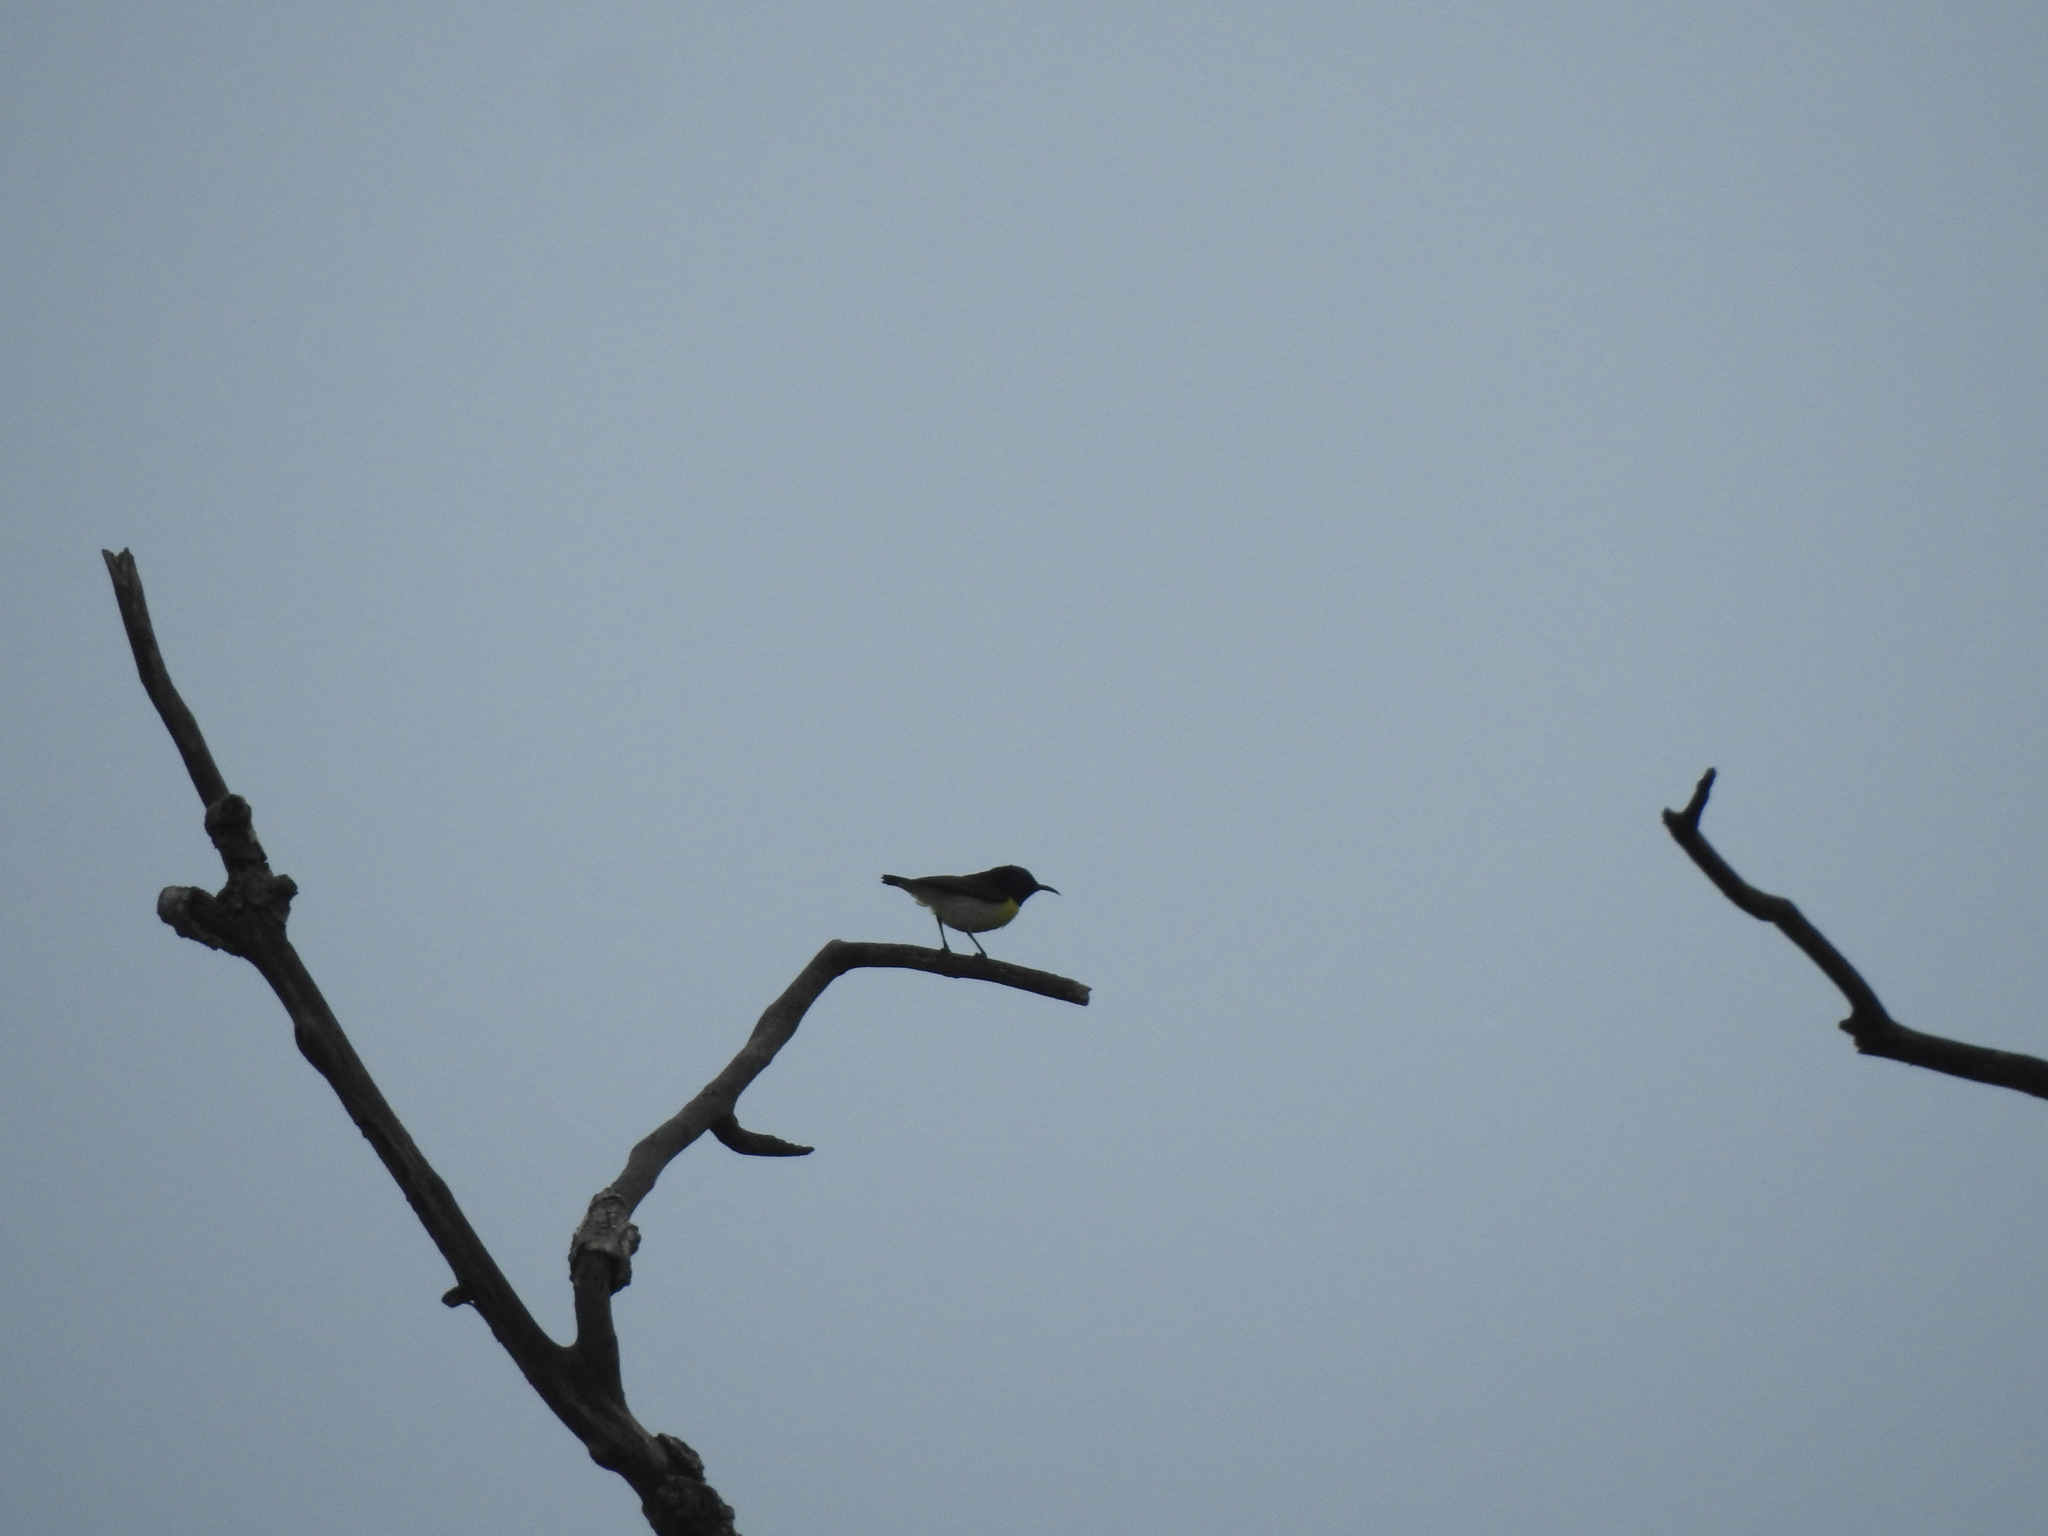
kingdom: Animalia
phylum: Chordata
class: Aves
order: Passeriformes
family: Nectariniidae
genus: Leptocoma
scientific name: Leptocoma zeylonica
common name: Purple-rumped sunbird
